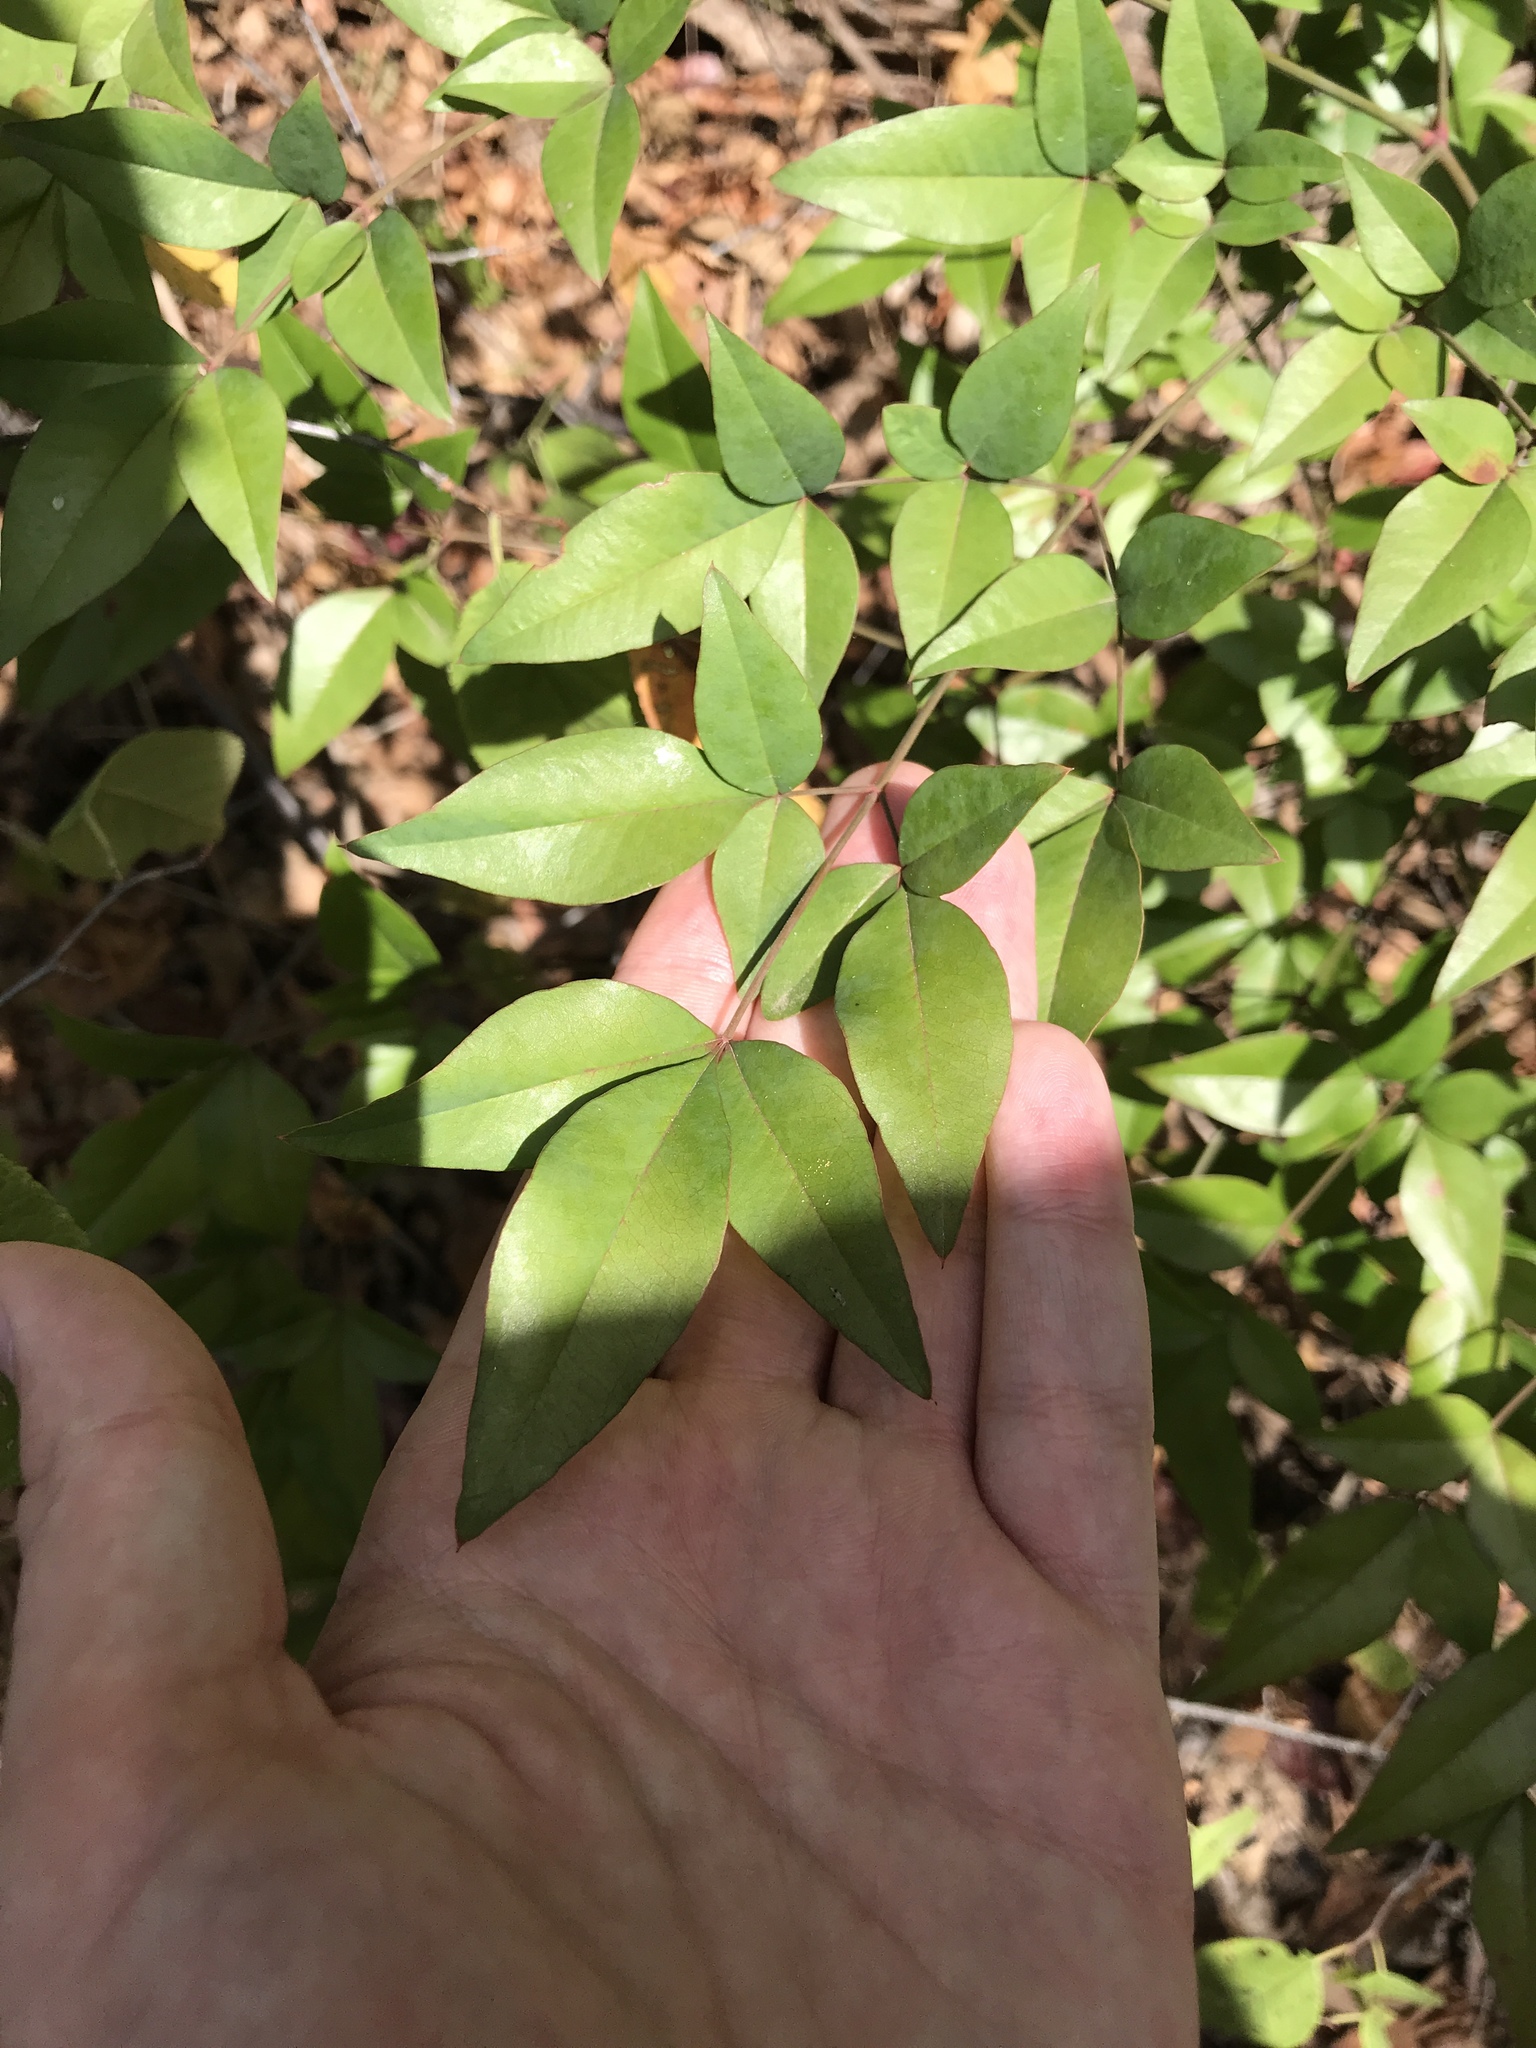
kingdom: Plantae
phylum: Tracheophyta
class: Magnoliopsida
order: Ranunculales
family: Berberidaceae
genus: Nandina
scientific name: Nandina domestica
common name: Sacred bamboo
